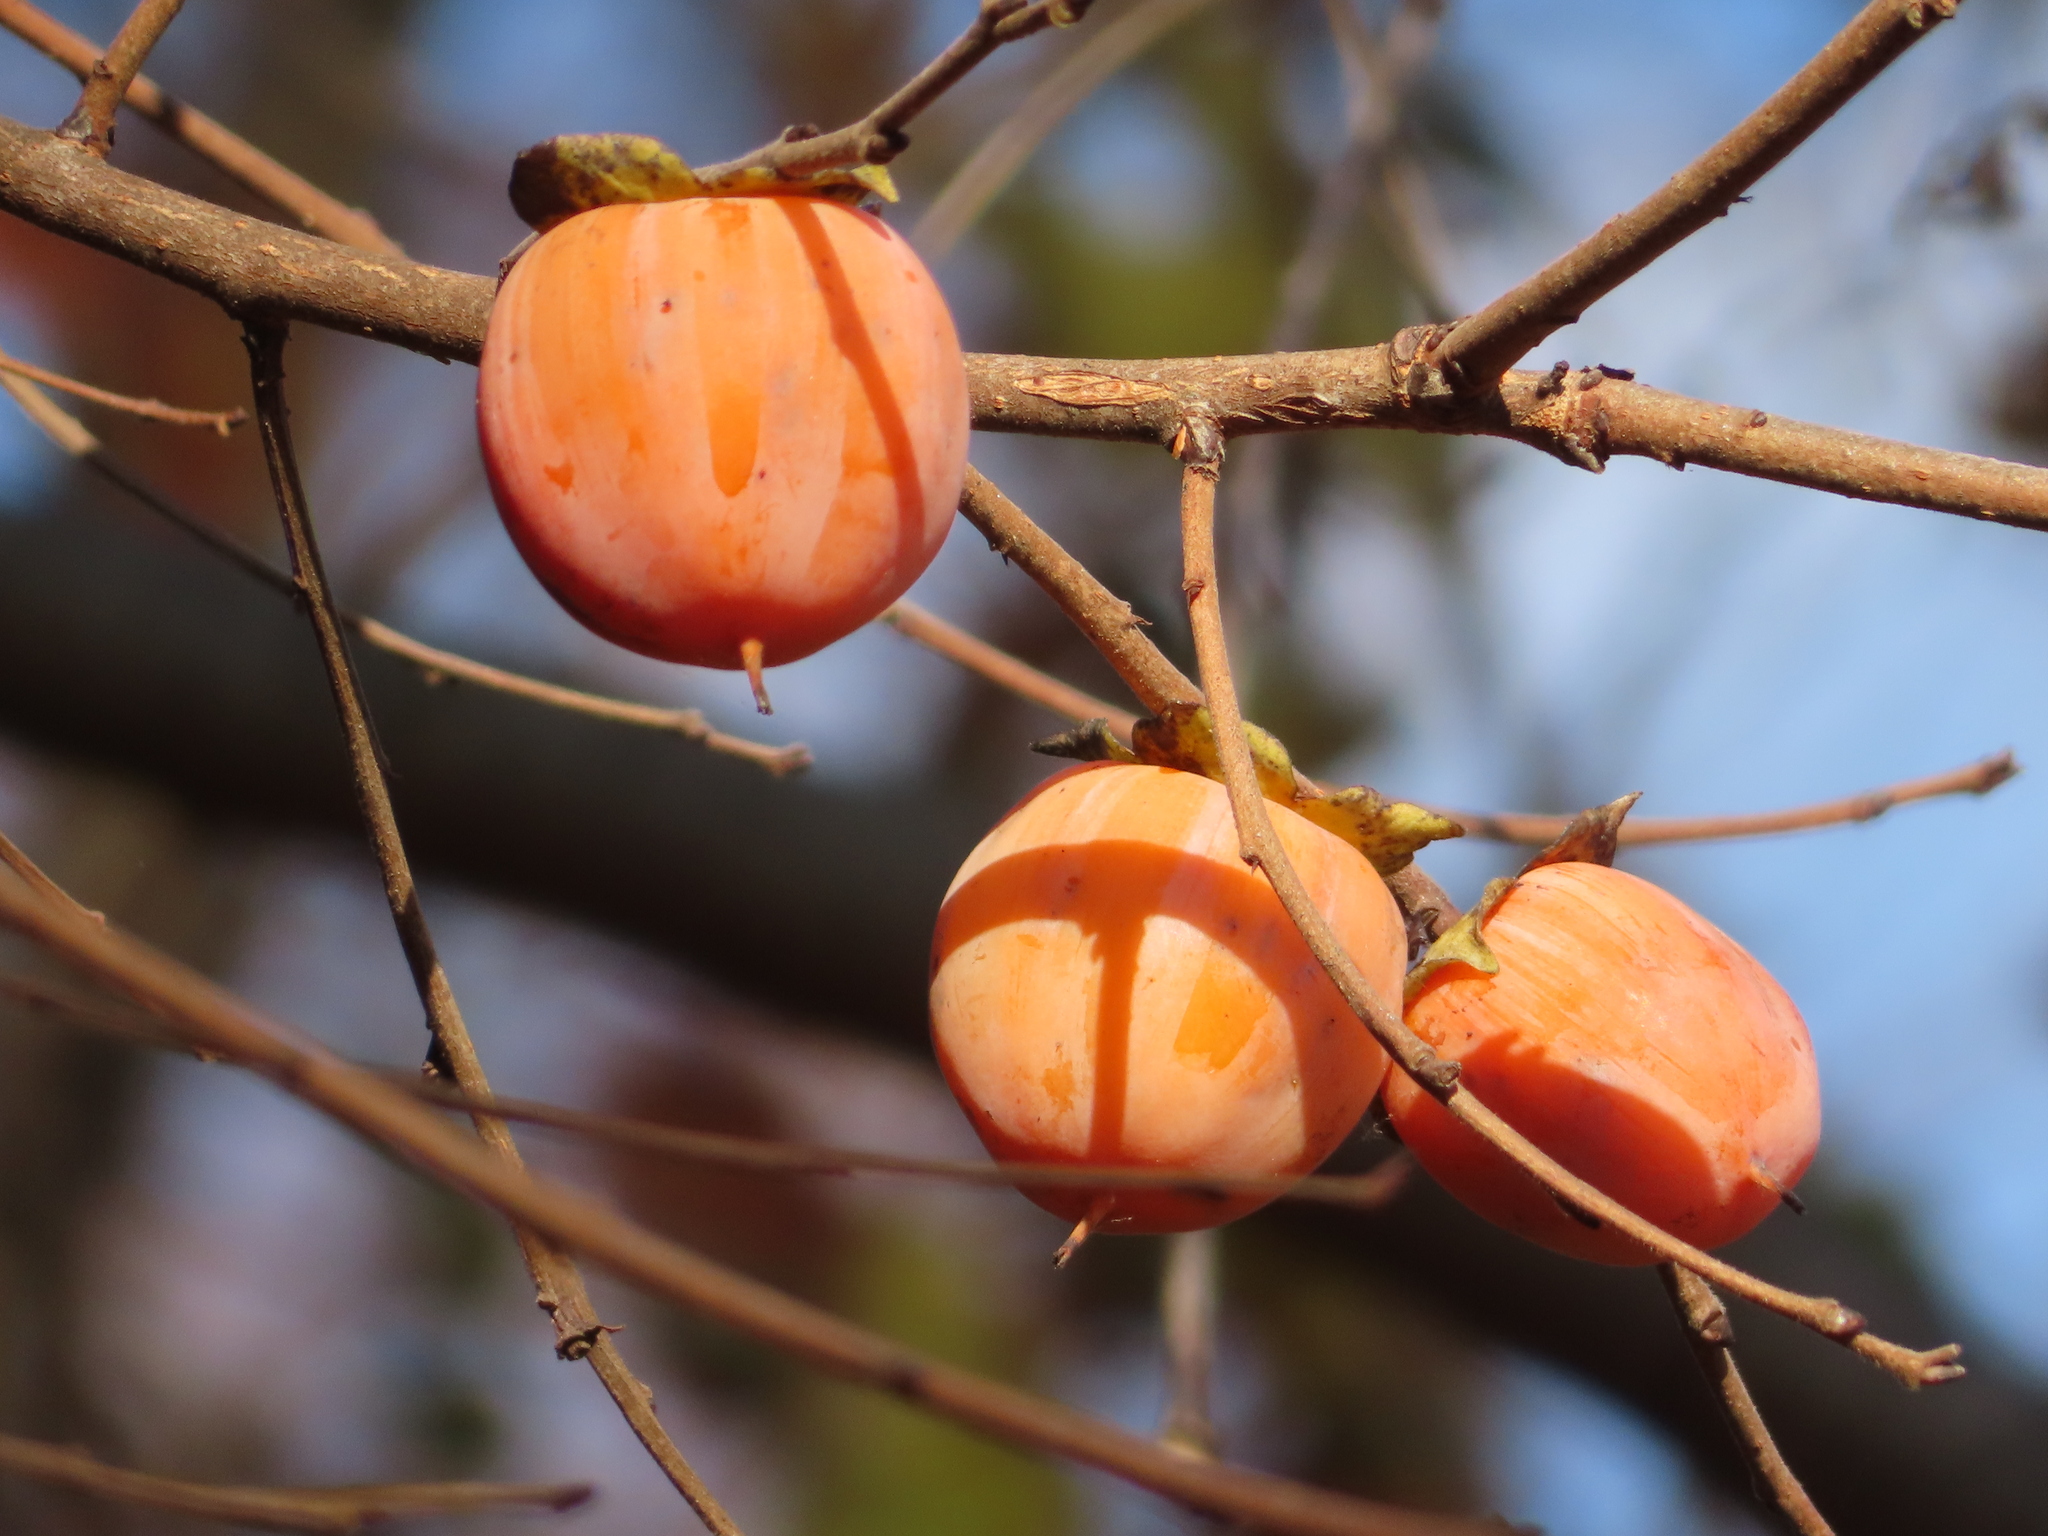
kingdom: Plantae
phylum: Tracheophyta
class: Magnoliopsida
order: Ericales
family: Ebenaceae
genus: Diospyros
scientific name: Diospyros virginiana
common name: Persimmon
